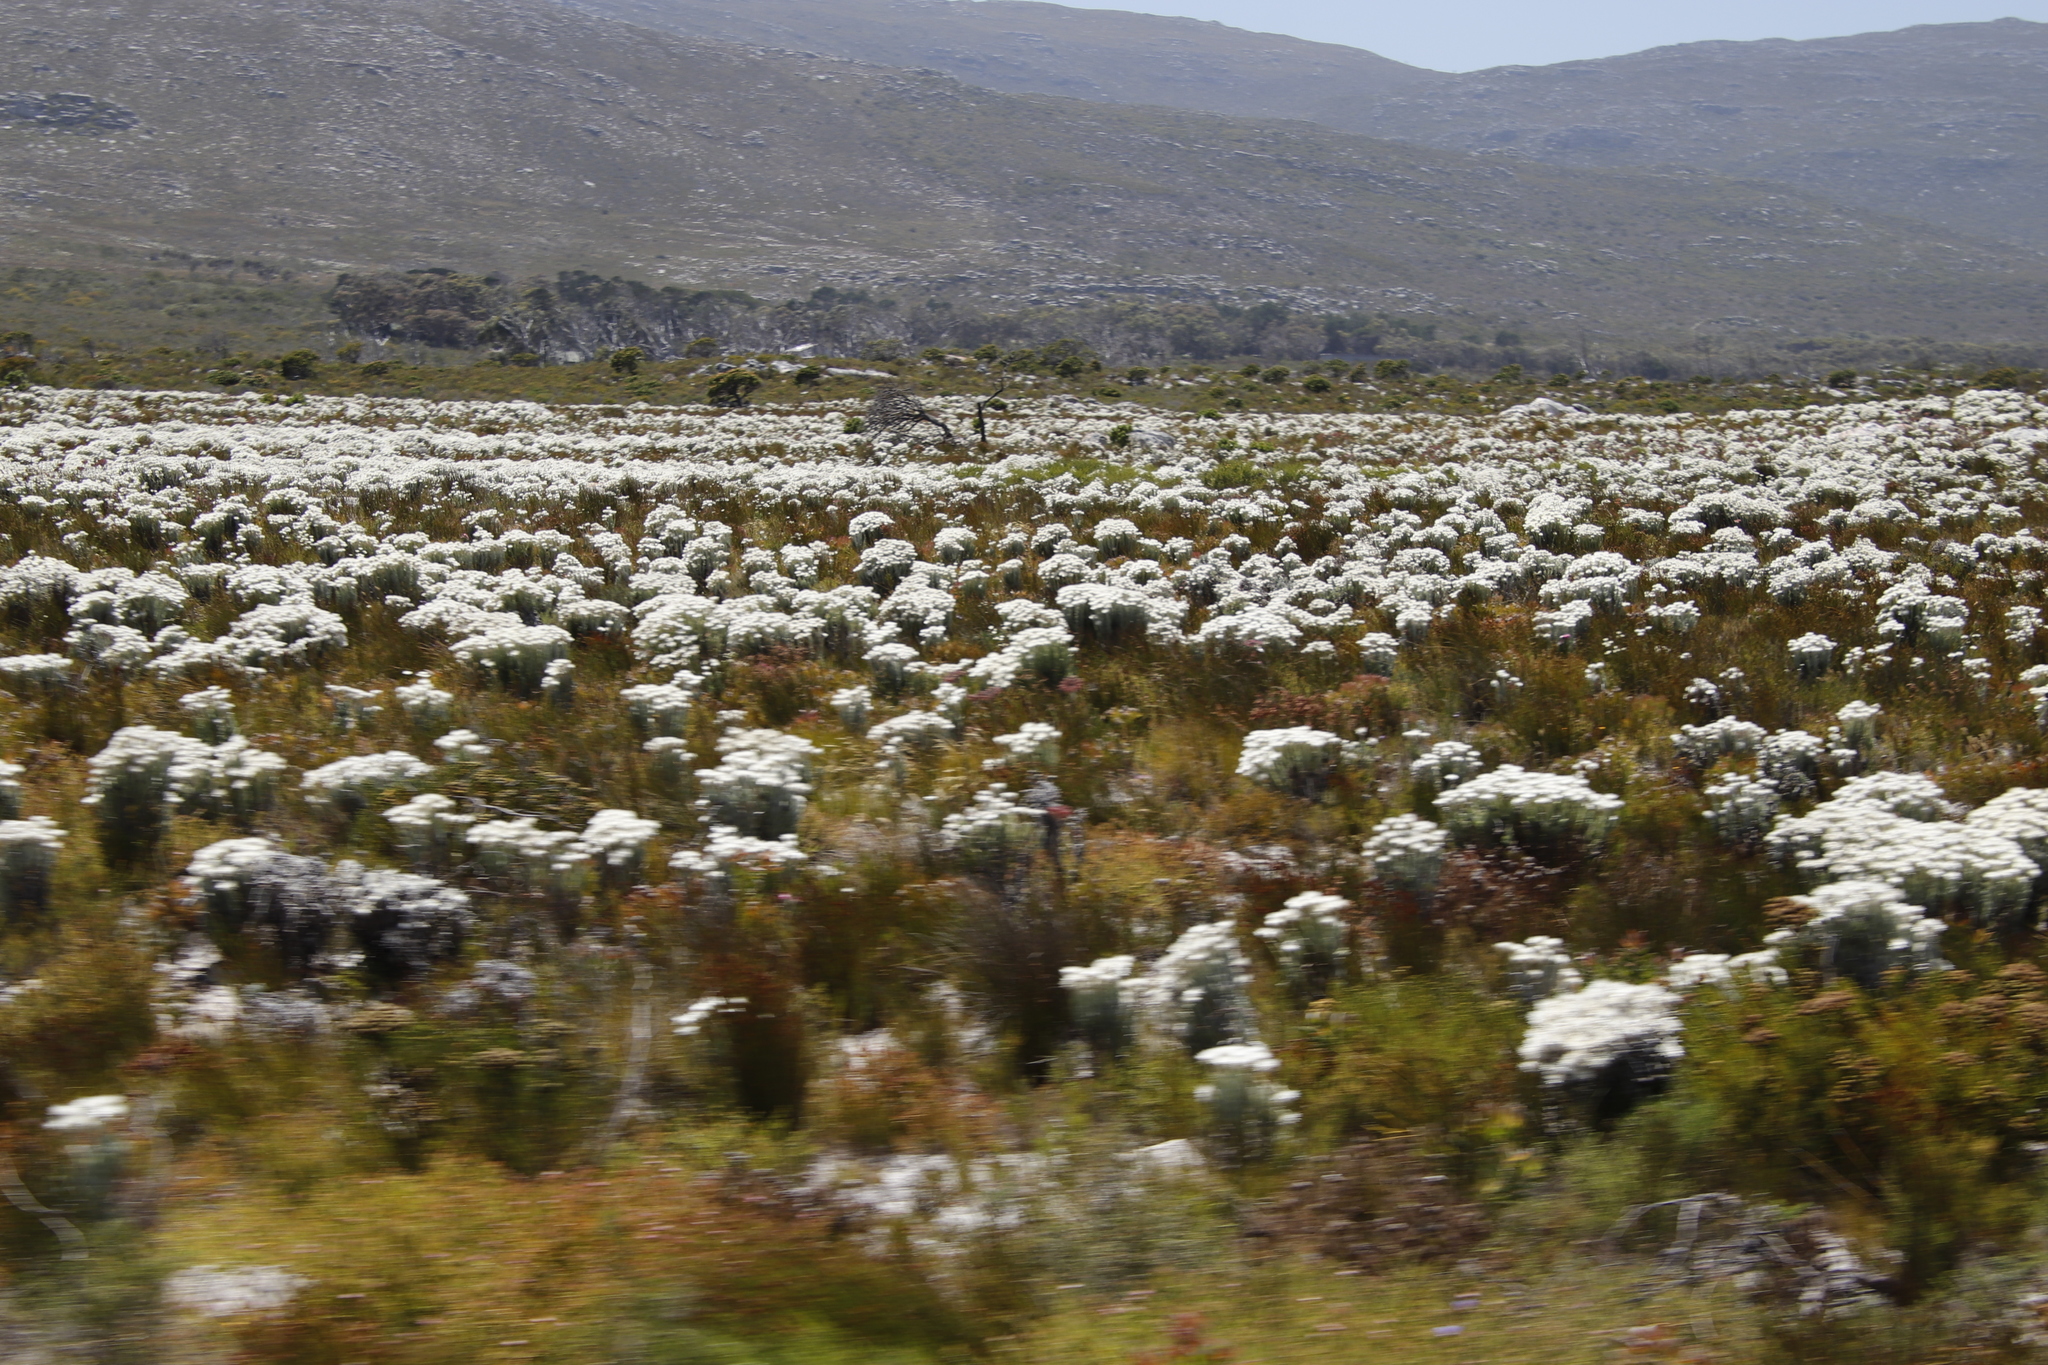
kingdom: Plantae
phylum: Tracheophyta
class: Magnoliopsida
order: Asterales
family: Asteraceae
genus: Syncarpha
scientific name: Syncarpha vestita
